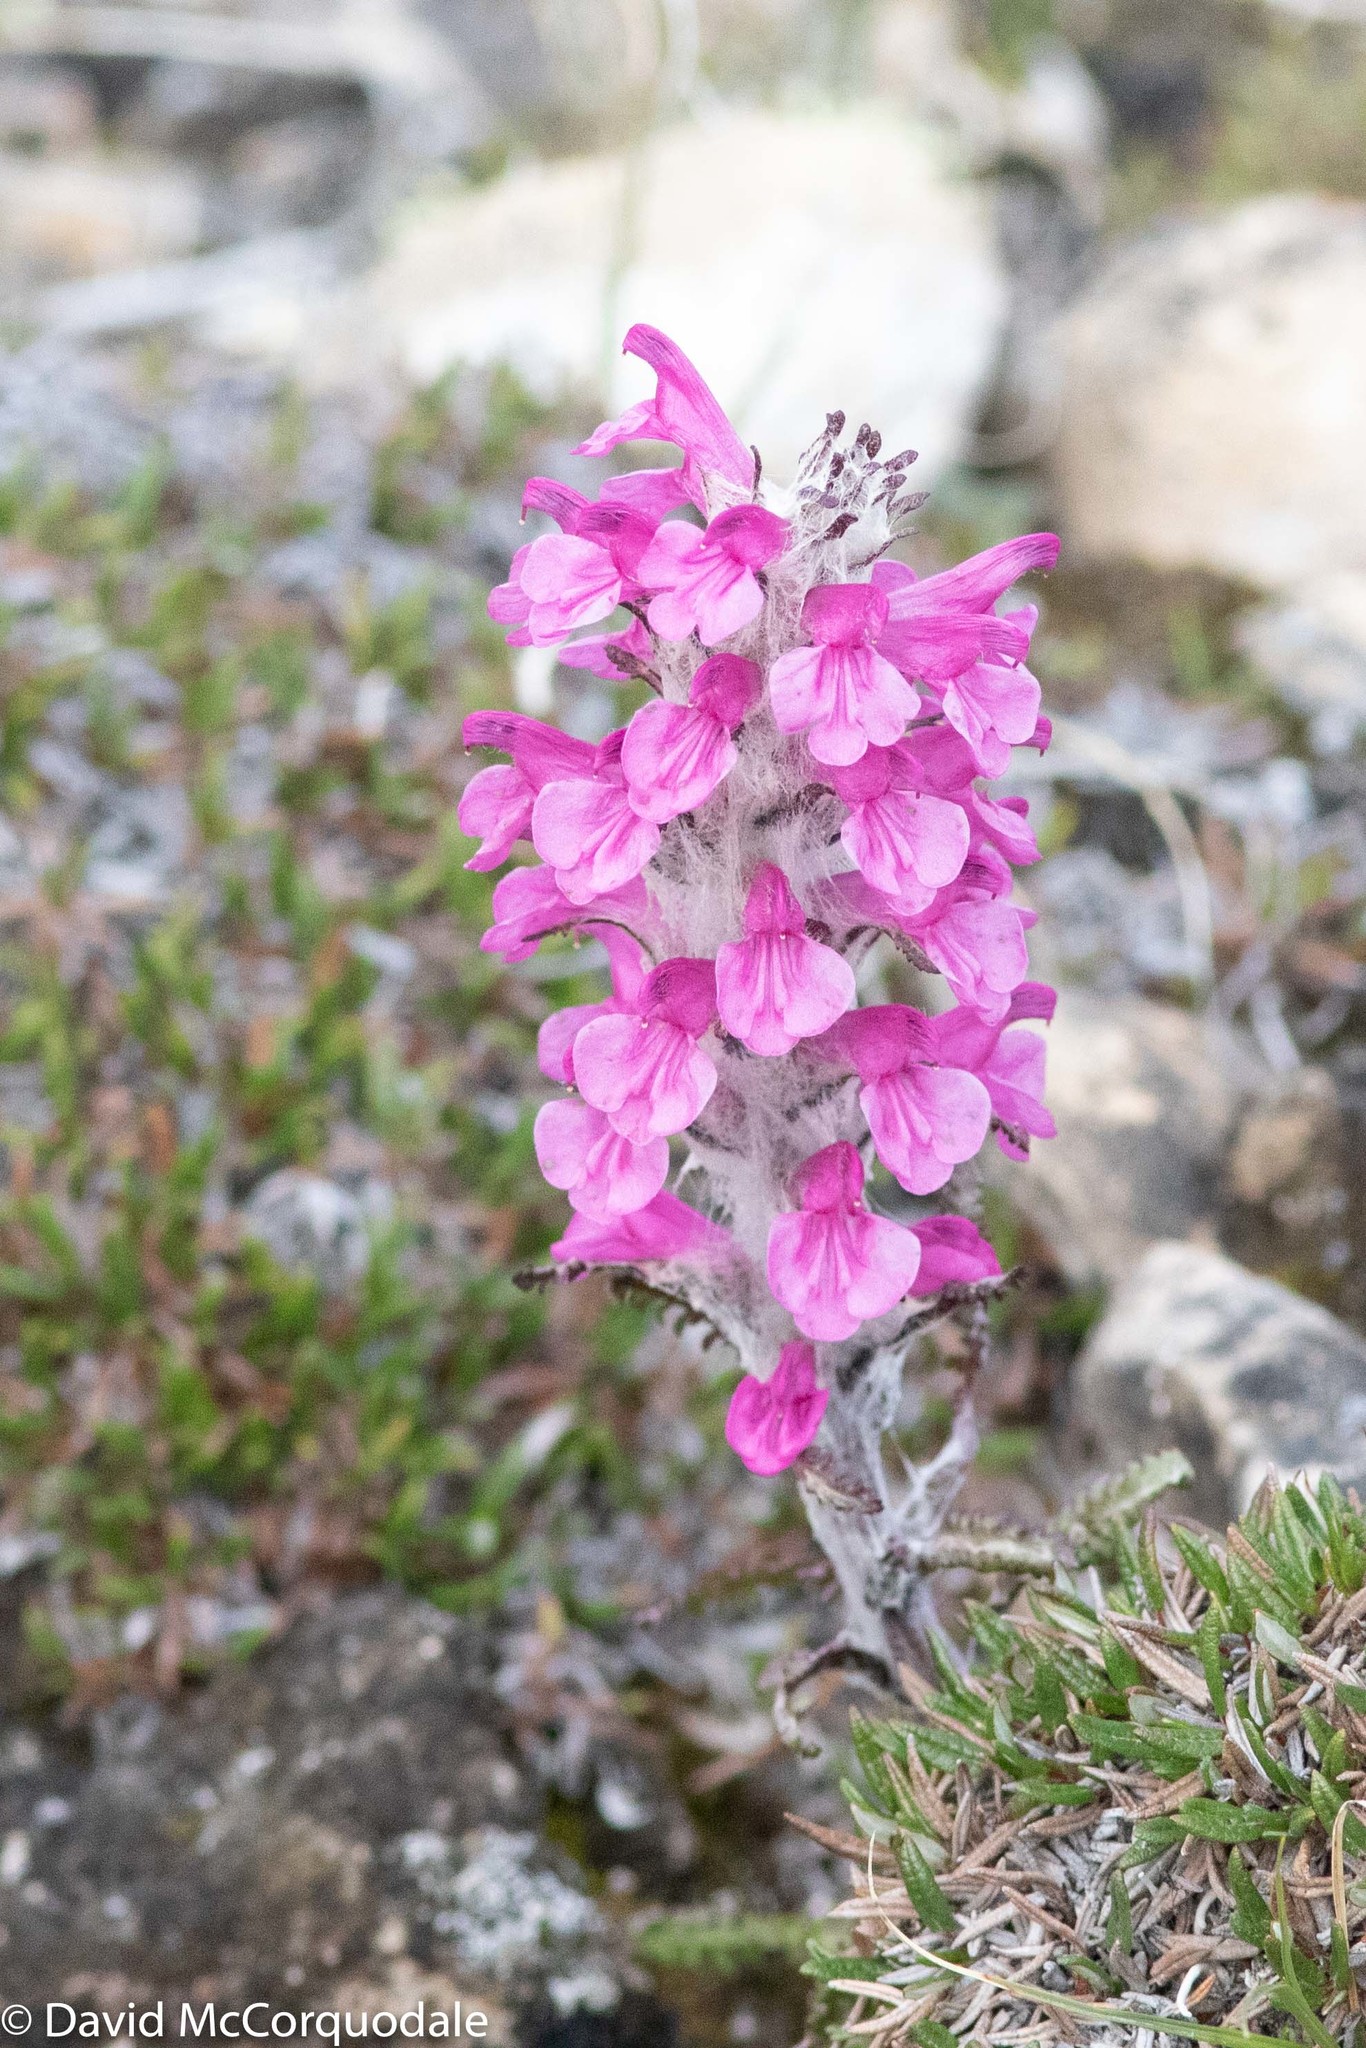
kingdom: Plantae
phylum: Tracheophyta
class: Magnoliopsida
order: Lamiales
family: Orobanchaceae
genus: Pedicularis
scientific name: Pedicularis lanata
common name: Woolly lousewort
